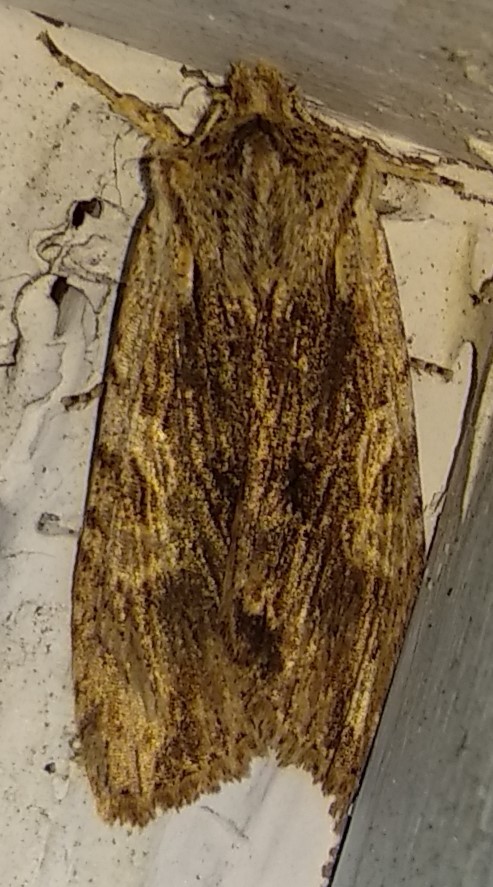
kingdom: Animalia
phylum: Arthropoda
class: Insecta
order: Lepidoptera
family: Noctuidae
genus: Achatia
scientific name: Achatia confusa
